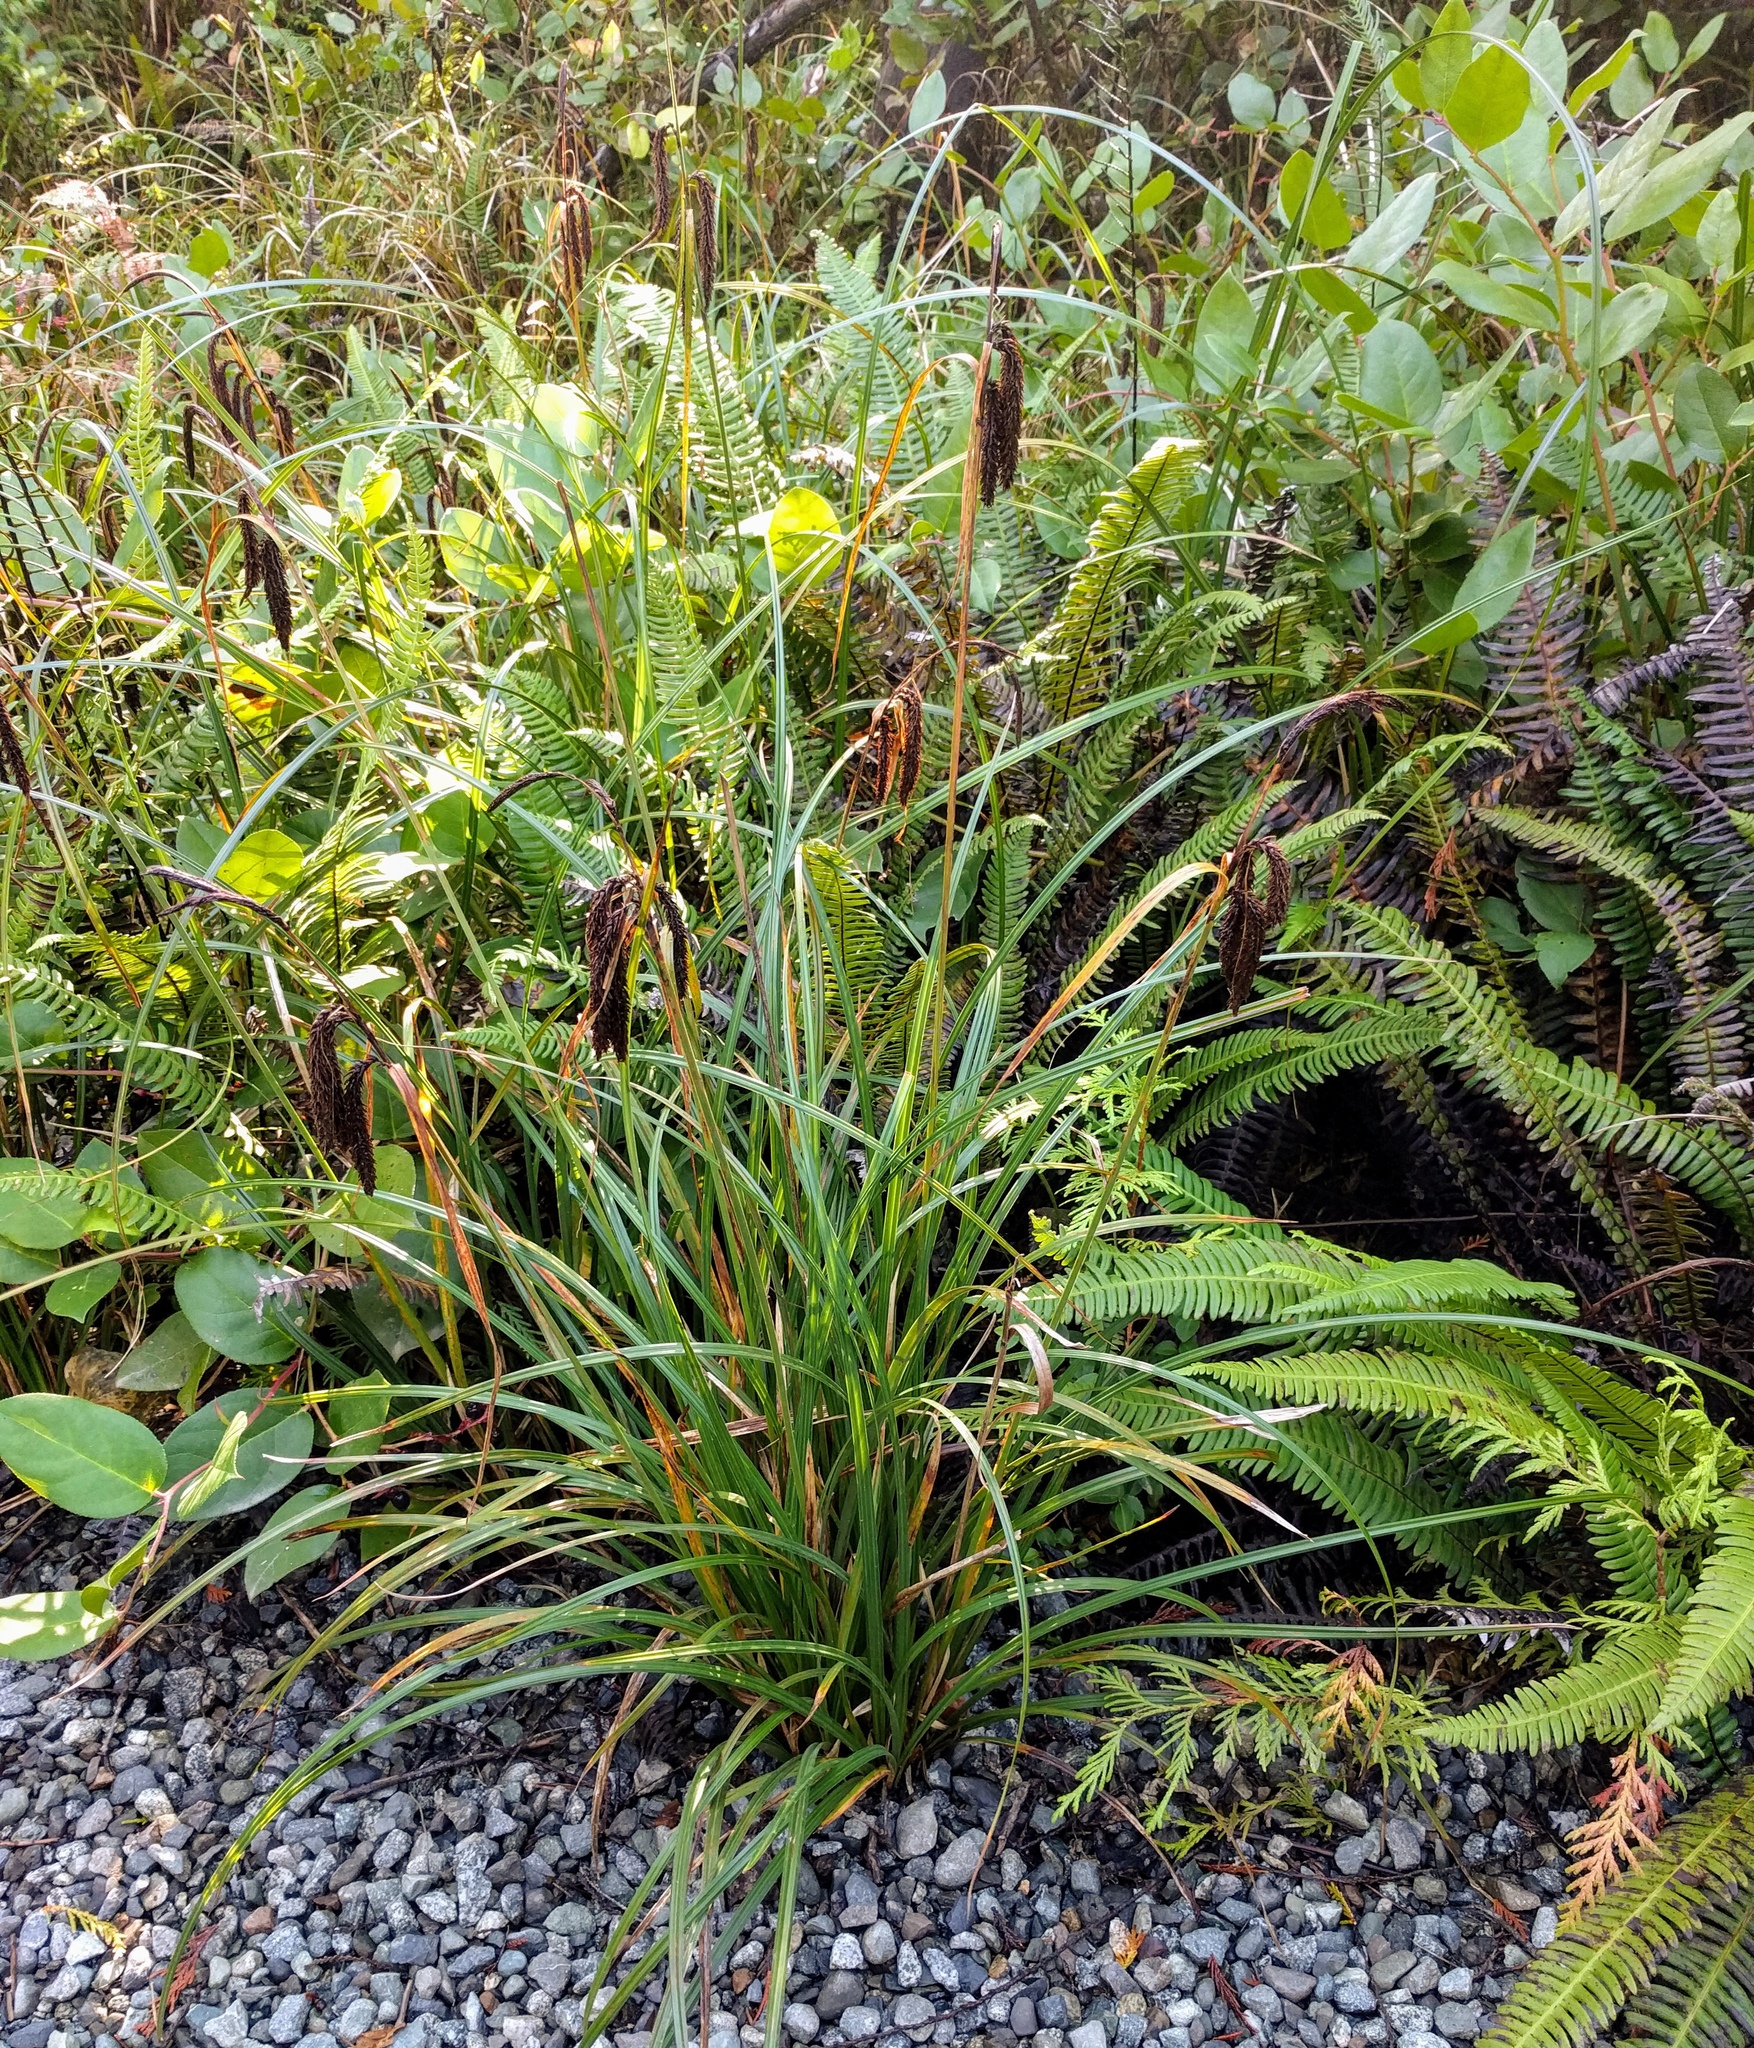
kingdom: Plantae
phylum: Tracheophyta
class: Liliopsida
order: Poales
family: Cyperaceae
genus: Carex
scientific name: Carex obnupta
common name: Slough sedge
